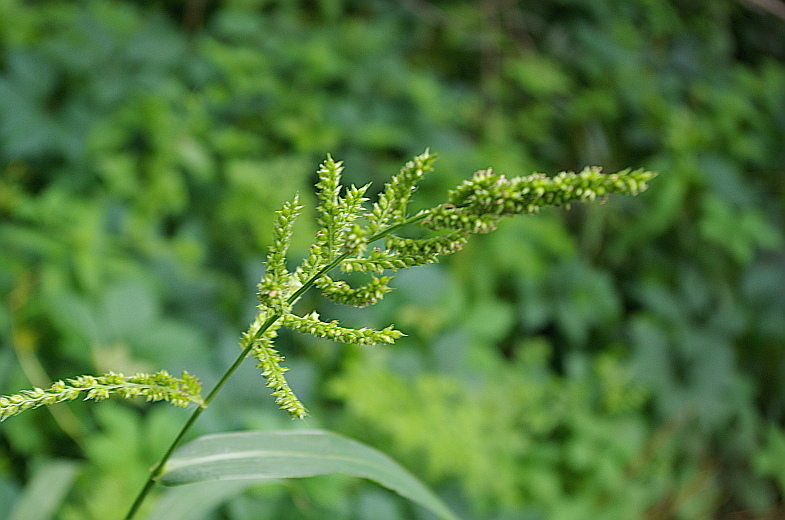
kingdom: Plantae
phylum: Tracheophyta
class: Liliopsida
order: Poales
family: Poaceae
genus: Echinochloa
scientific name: Echinochloa crus-galli
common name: Cockspur
